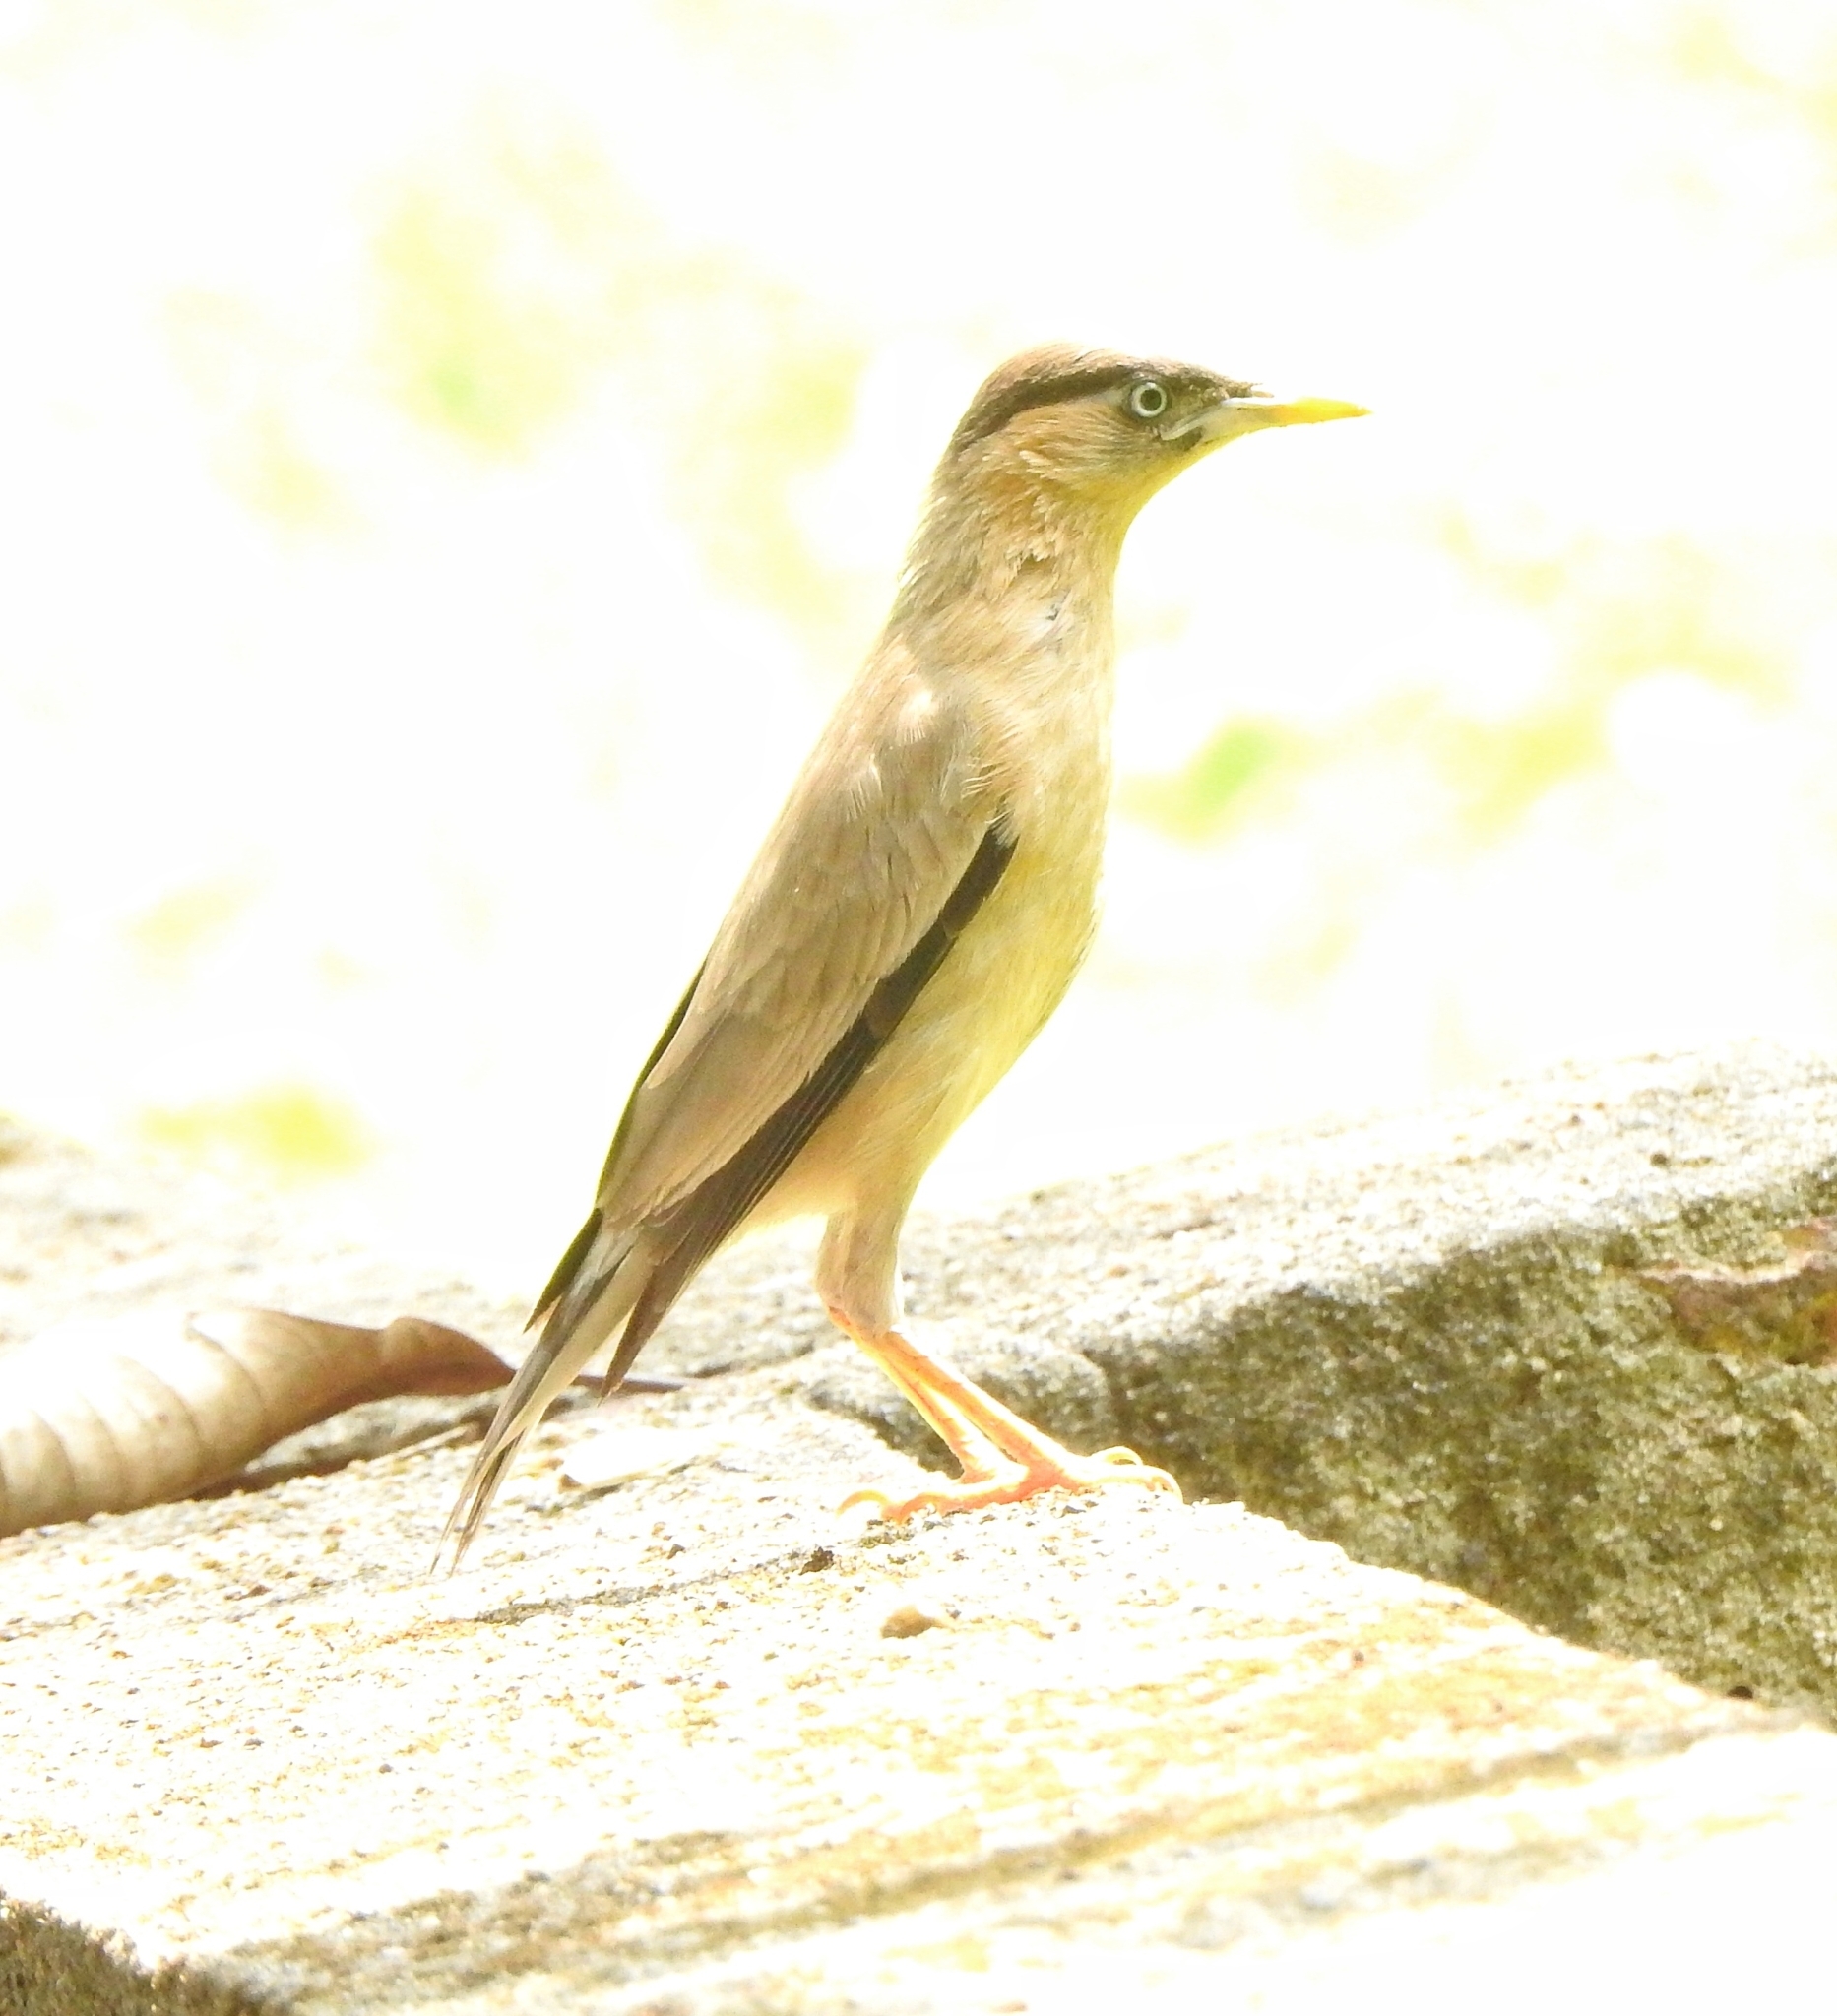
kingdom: Animalia
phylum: Chordata
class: Aves
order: Passeriformes
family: Sturnidae
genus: Sturnia
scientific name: Sturnia pagodarum
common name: Brahminy starling
